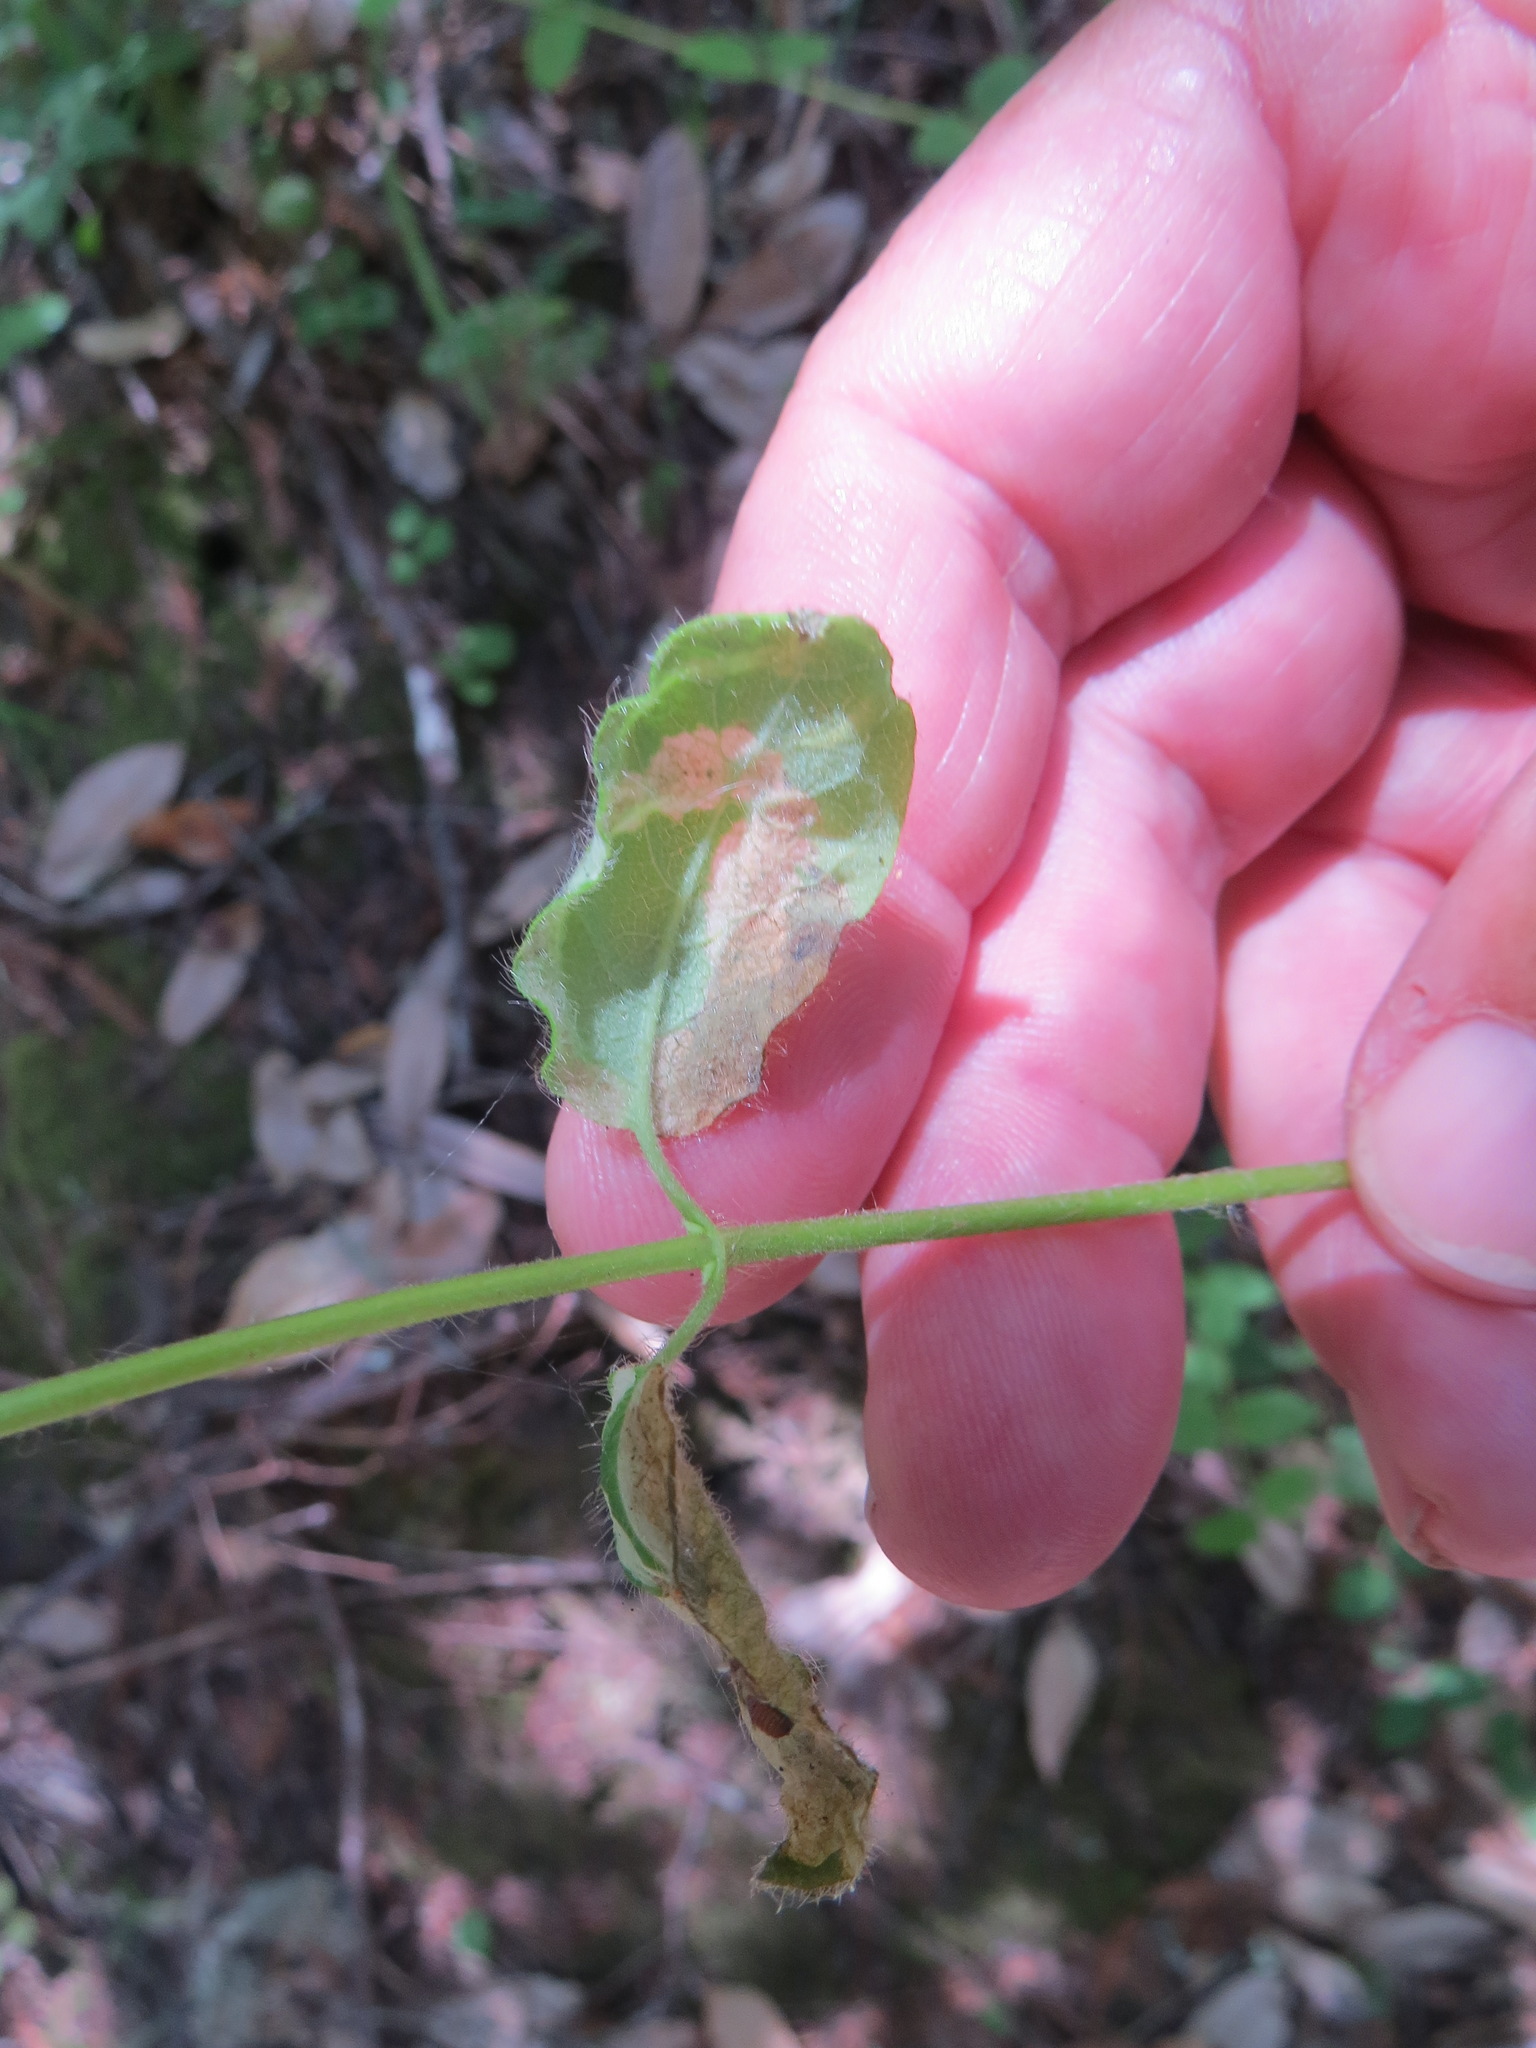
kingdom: Animalia
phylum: Arthropoda
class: Insecta
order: Diptera
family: Agromyzidae
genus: Aulagromyza
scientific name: Aulagromyza cornigera
